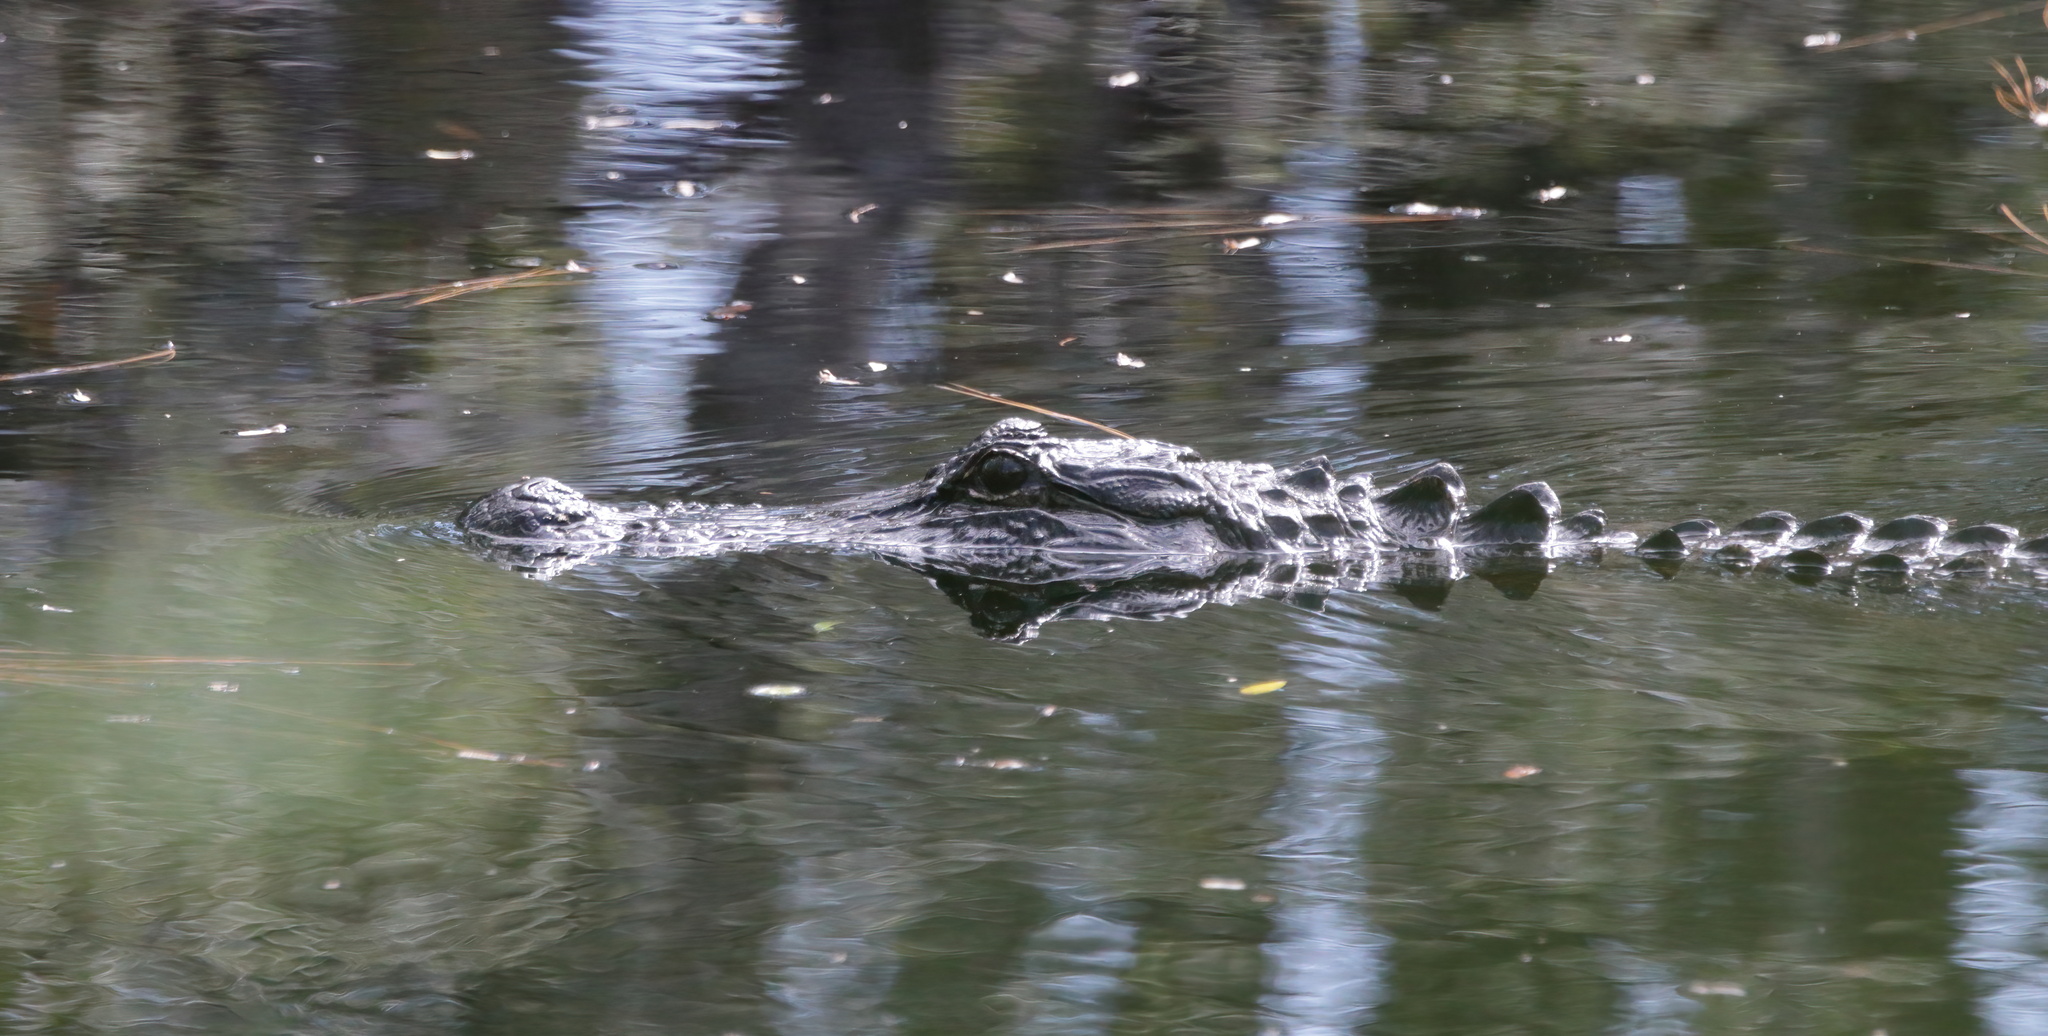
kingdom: Animalia
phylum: Chordata
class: Crocodylia
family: Alligatoridae
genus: Alligator
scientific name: Alligator mississippiensis
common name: American alligator
